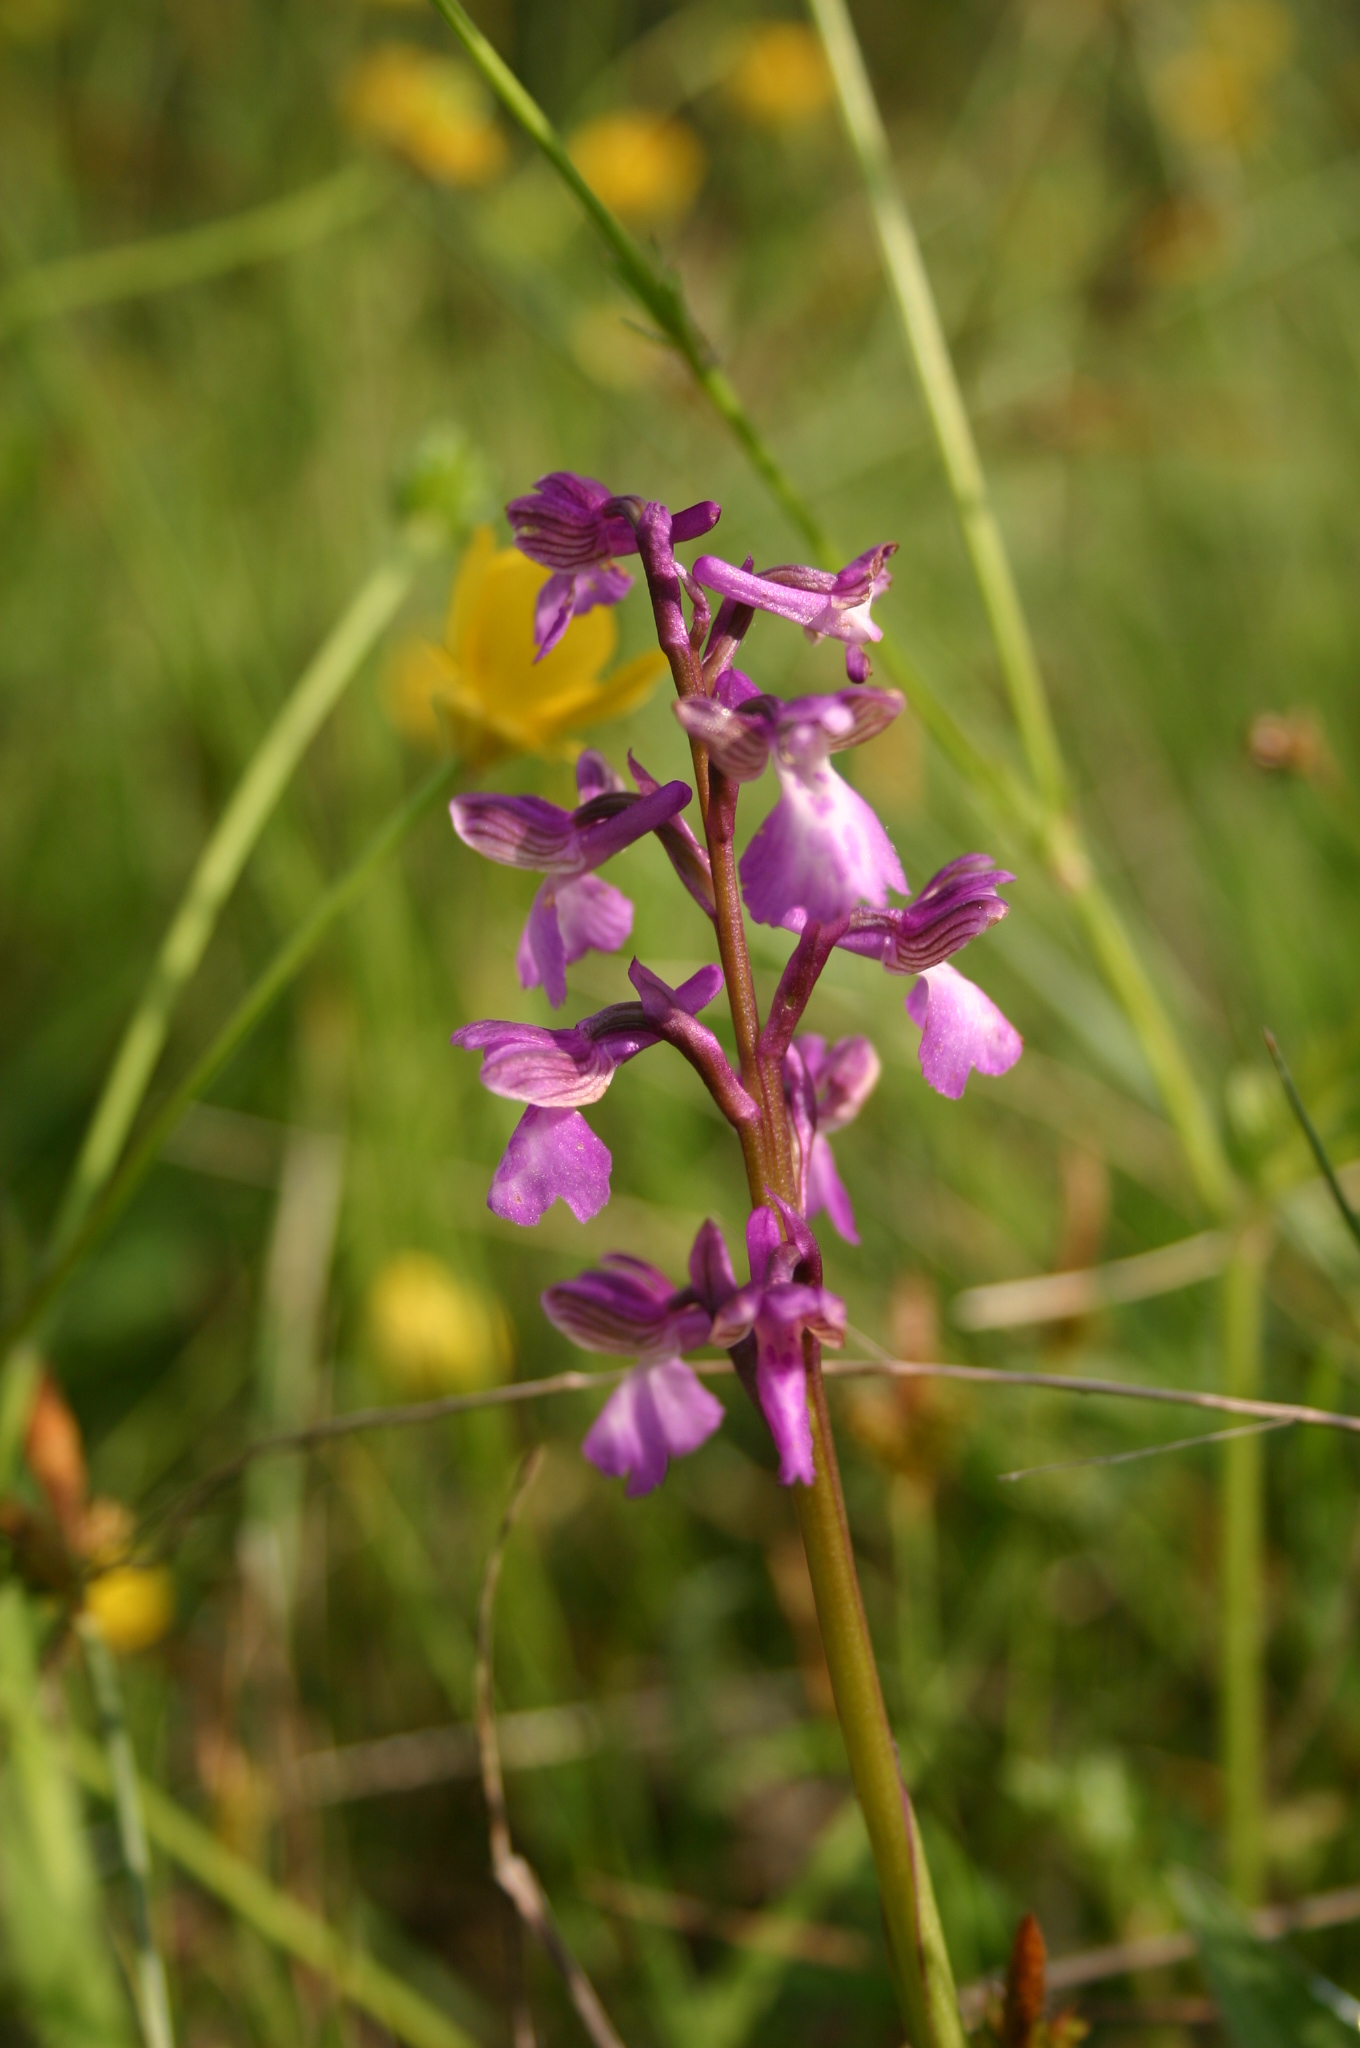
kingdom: Plantae
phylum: Tracheophyta
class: Liliopsida
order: Asparagales
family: Orchidaceae
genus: Anacamptis
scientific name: Anacamptis morio
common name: Green-winged orchid
